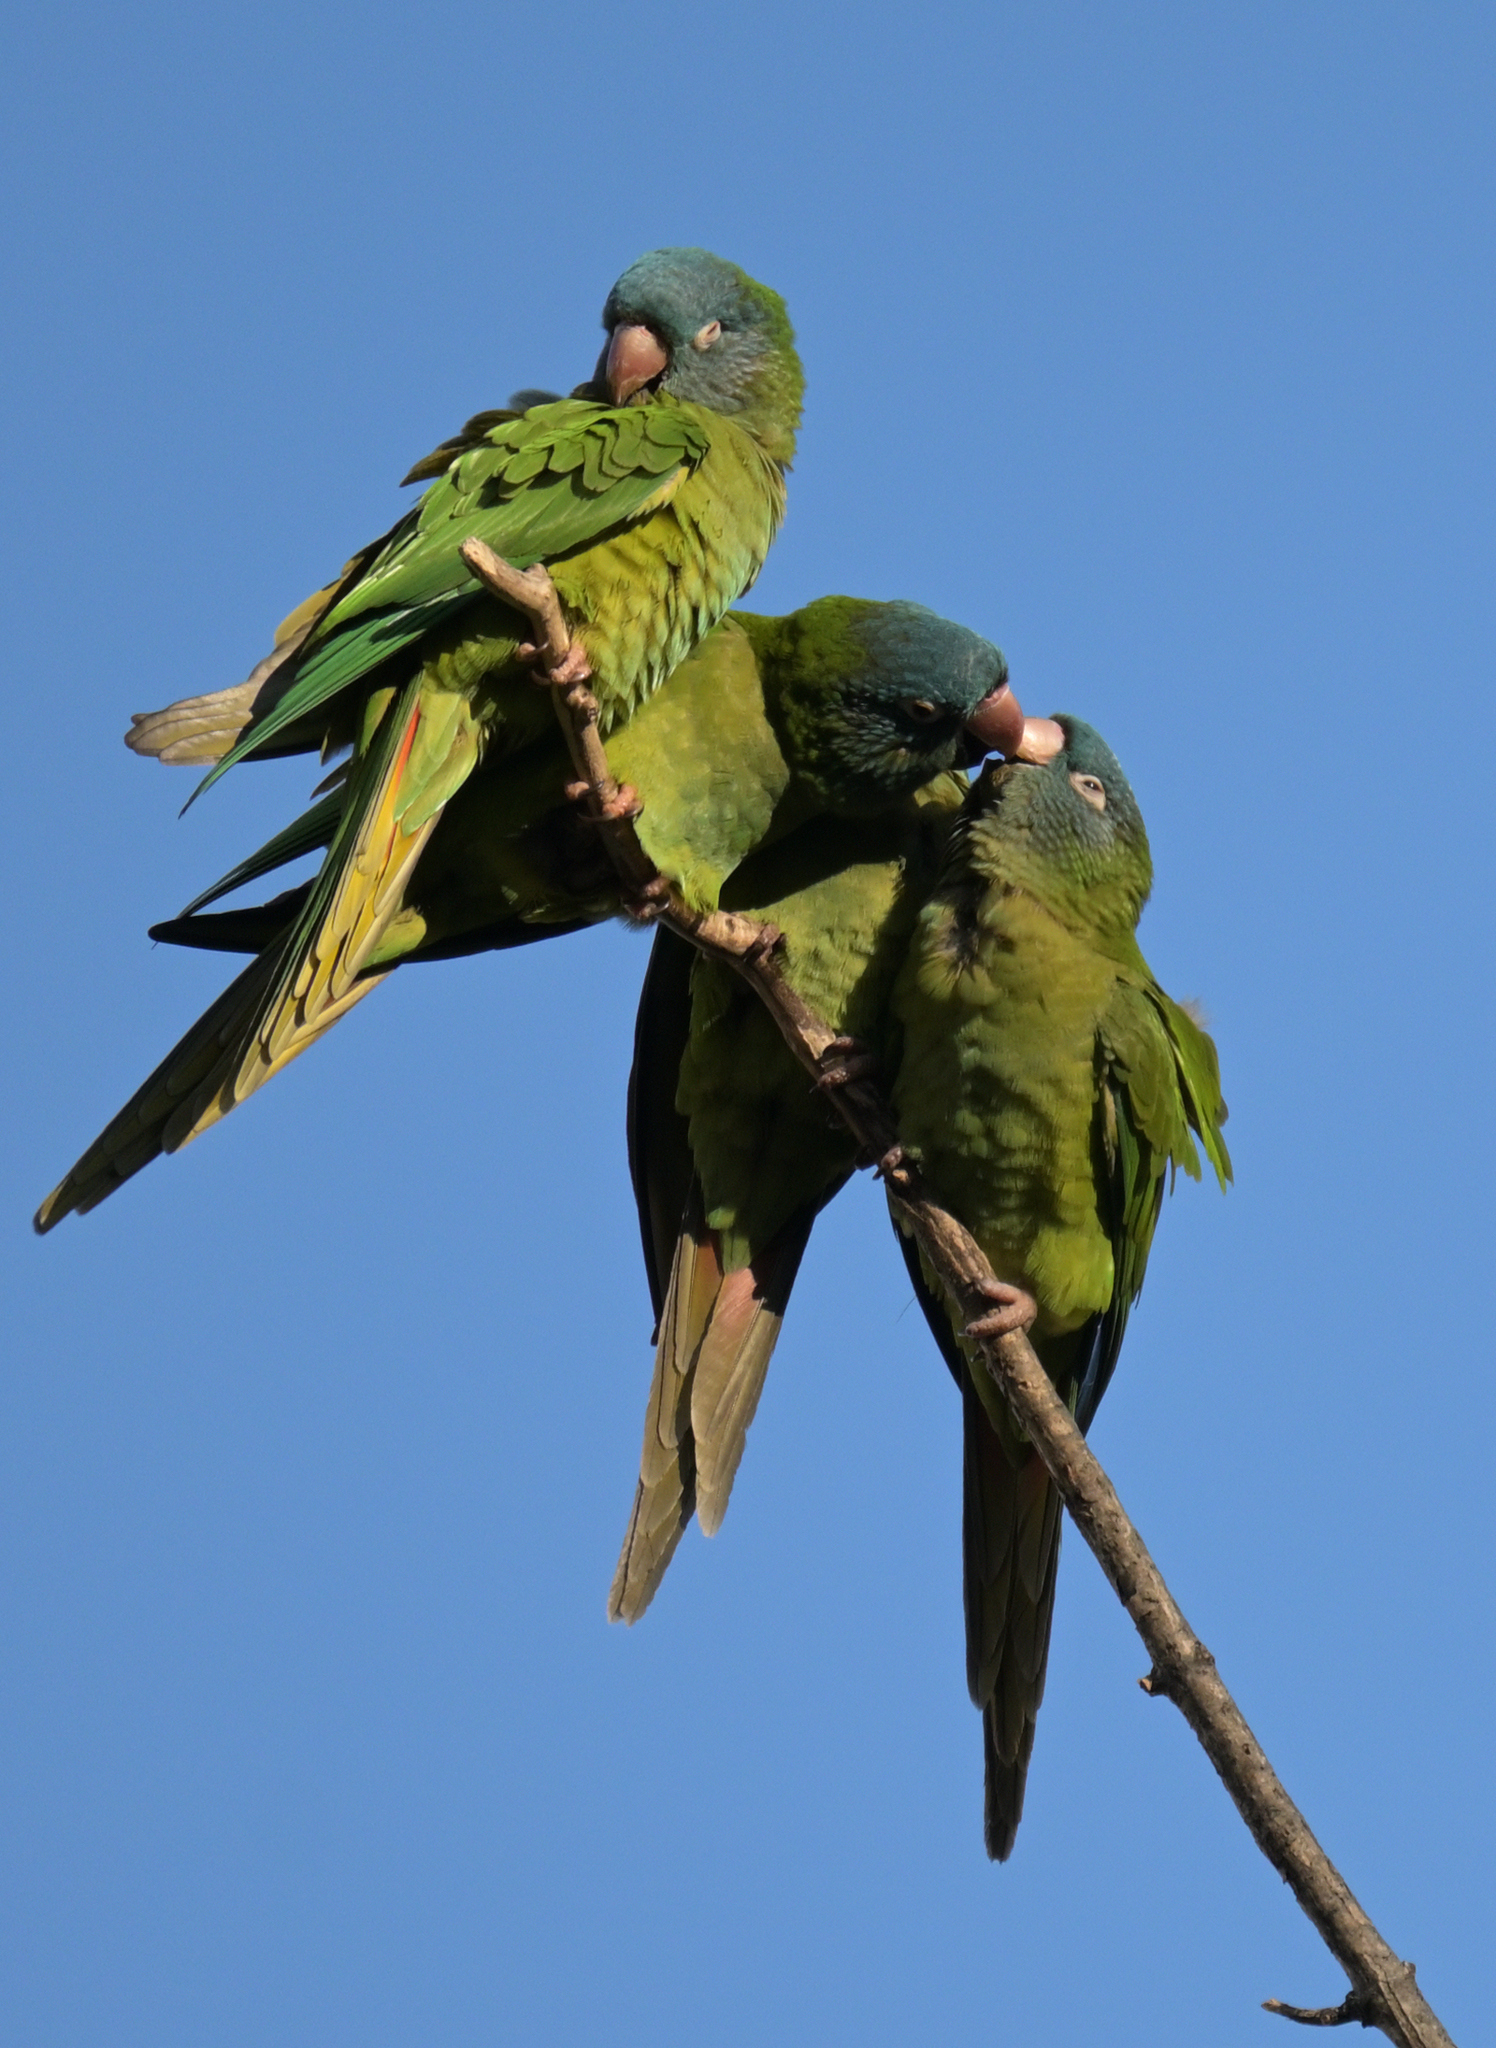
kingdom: Animalia
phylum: Chordata
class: Aves
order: Psittaciformes
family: Psittacidae
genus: Aratinga
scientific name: Aratinga acuticaudata
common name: Blue-crowned parakeet
